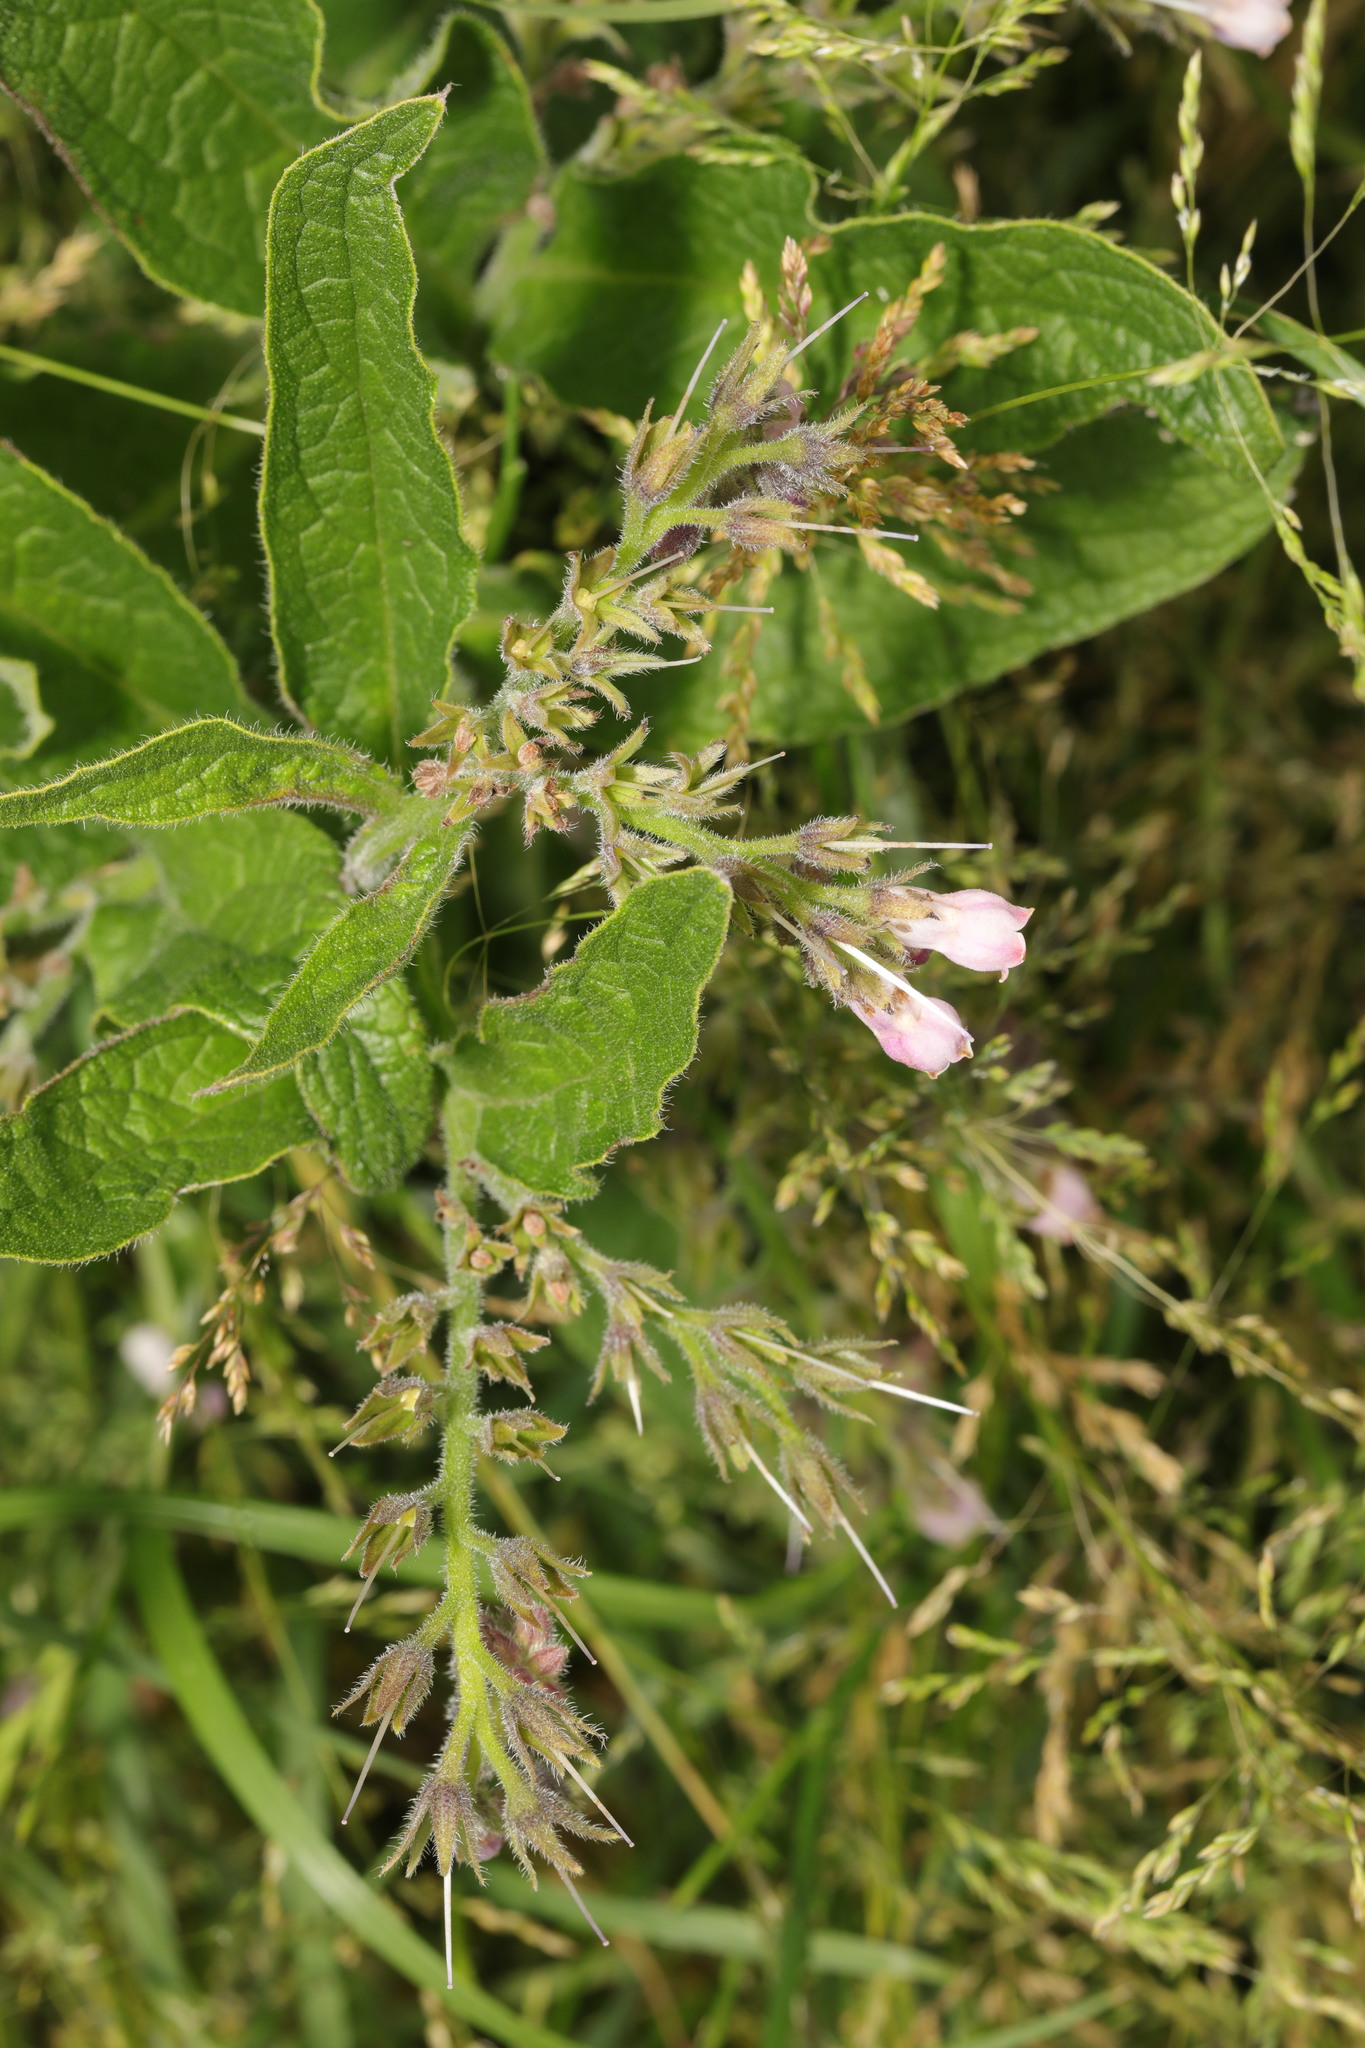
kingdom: Plantae
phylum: Tracheophyta
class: Magnoliopsida
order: Boraginales
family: Boraginaceae
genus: Symphytum
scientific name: Symphytum officinale
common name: Common comfrey
